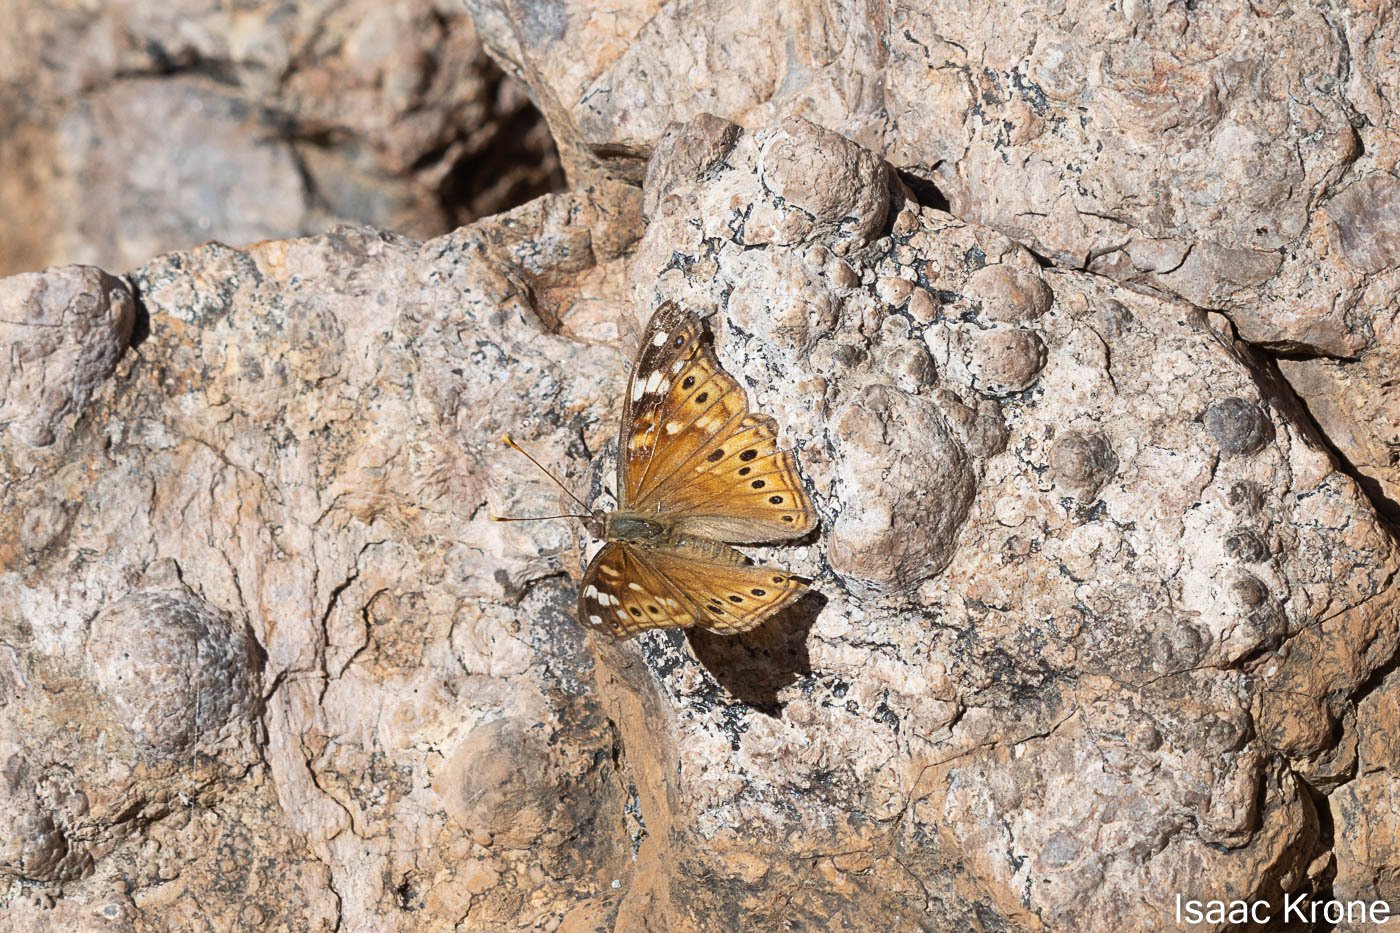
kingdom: Animalia
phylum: Arthropoda
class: Insecta
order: Lepidoptera
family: Nymphalidae
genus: Asterocampa
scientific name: Asterocampa leilia
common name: Empress leilia
